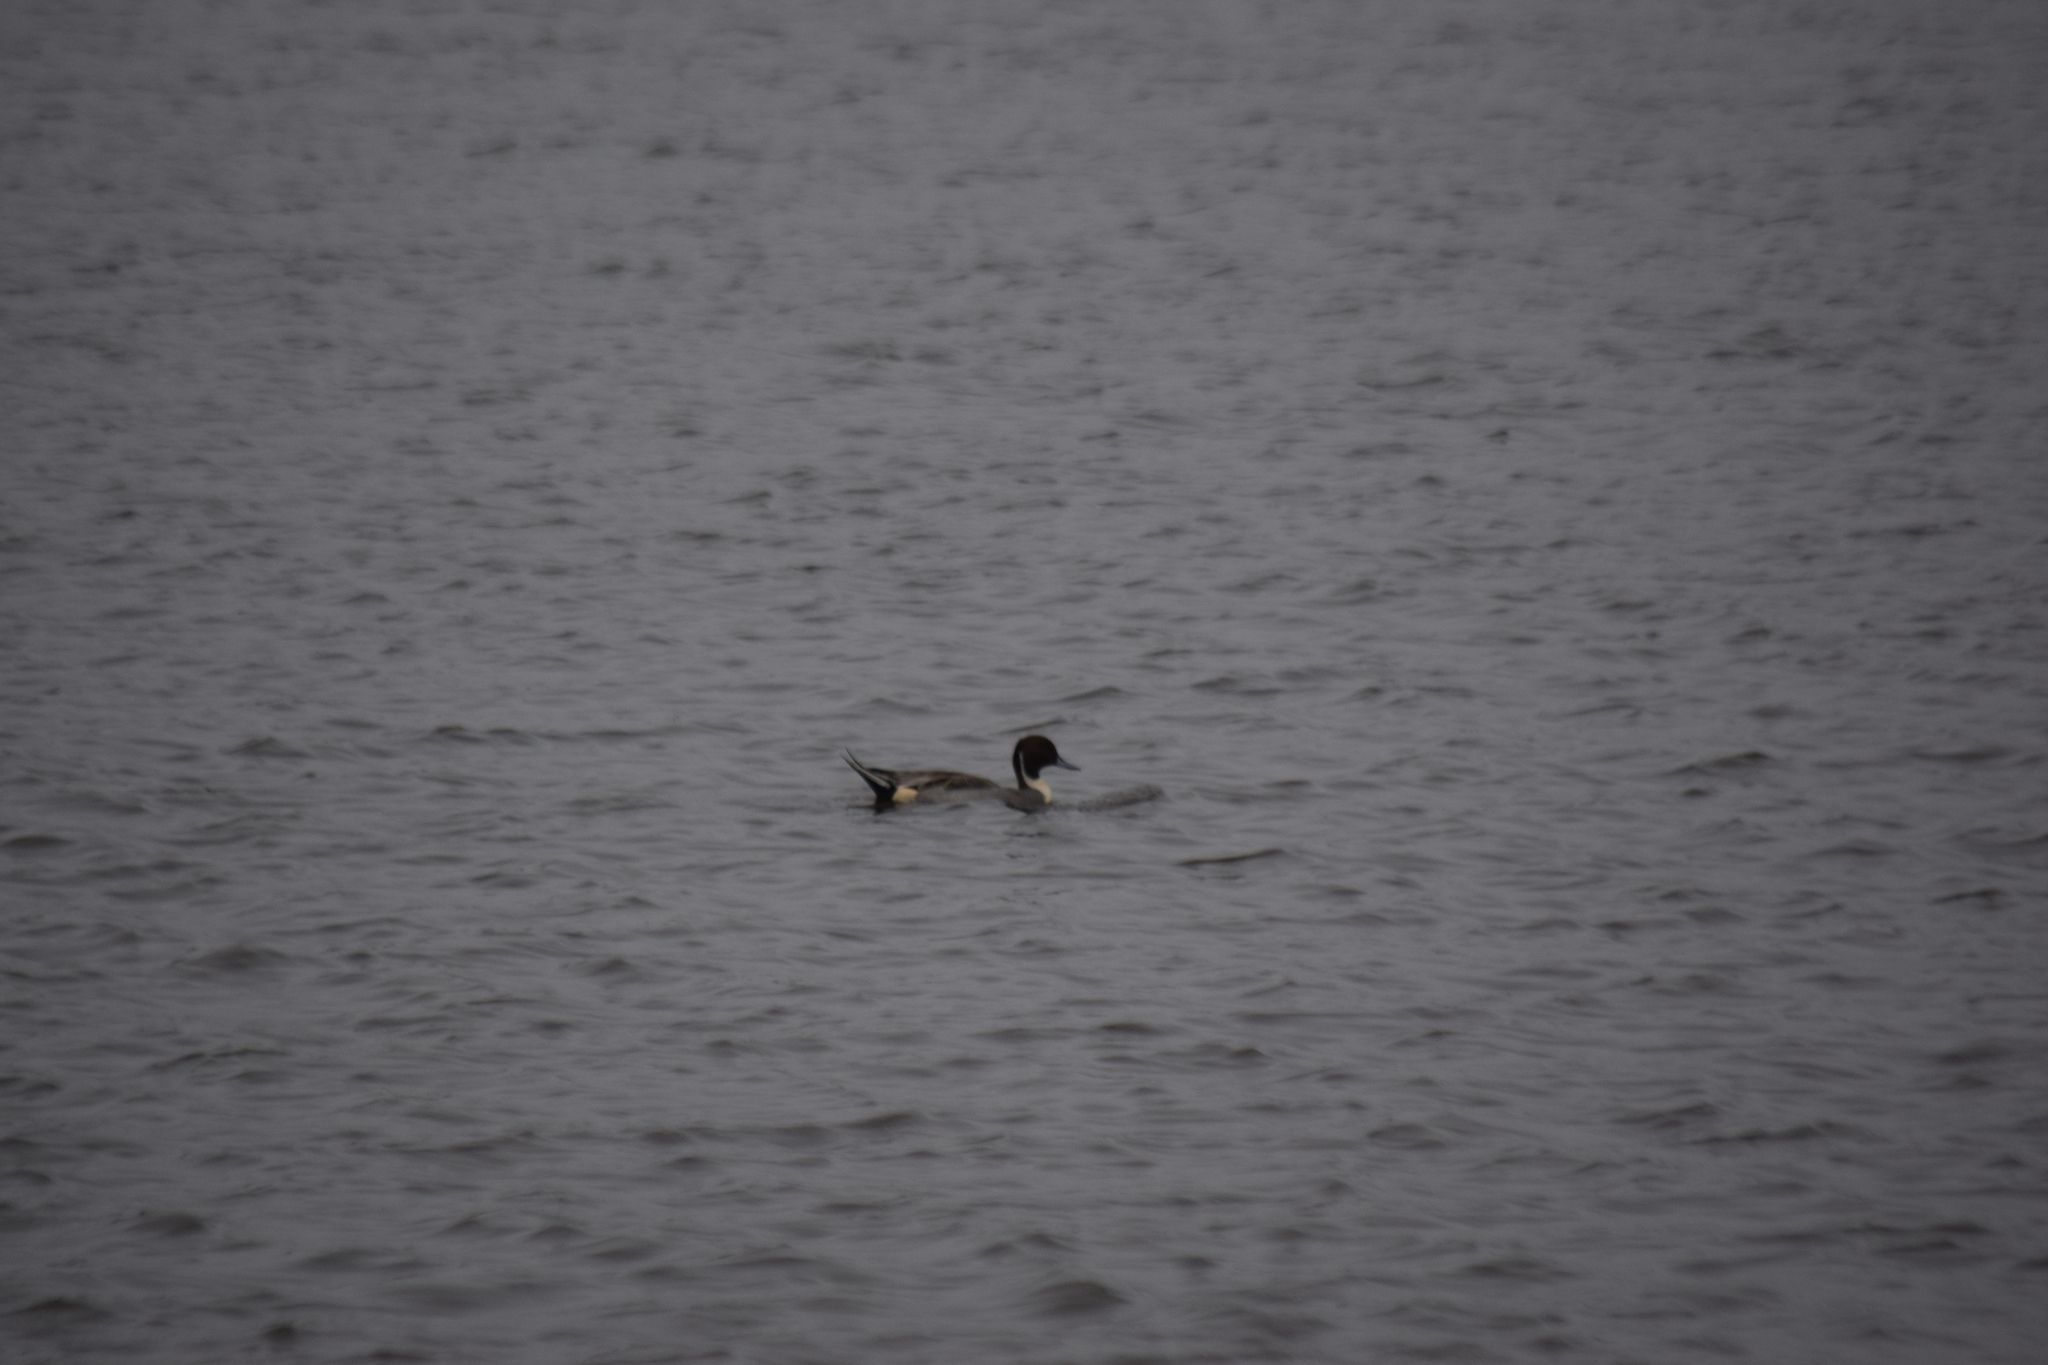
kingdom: Animalia
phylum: Chordata
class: Aves
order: Anseriformes
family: Anatidae
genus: Anas
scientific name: Anas acuta
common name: Northern pintail
